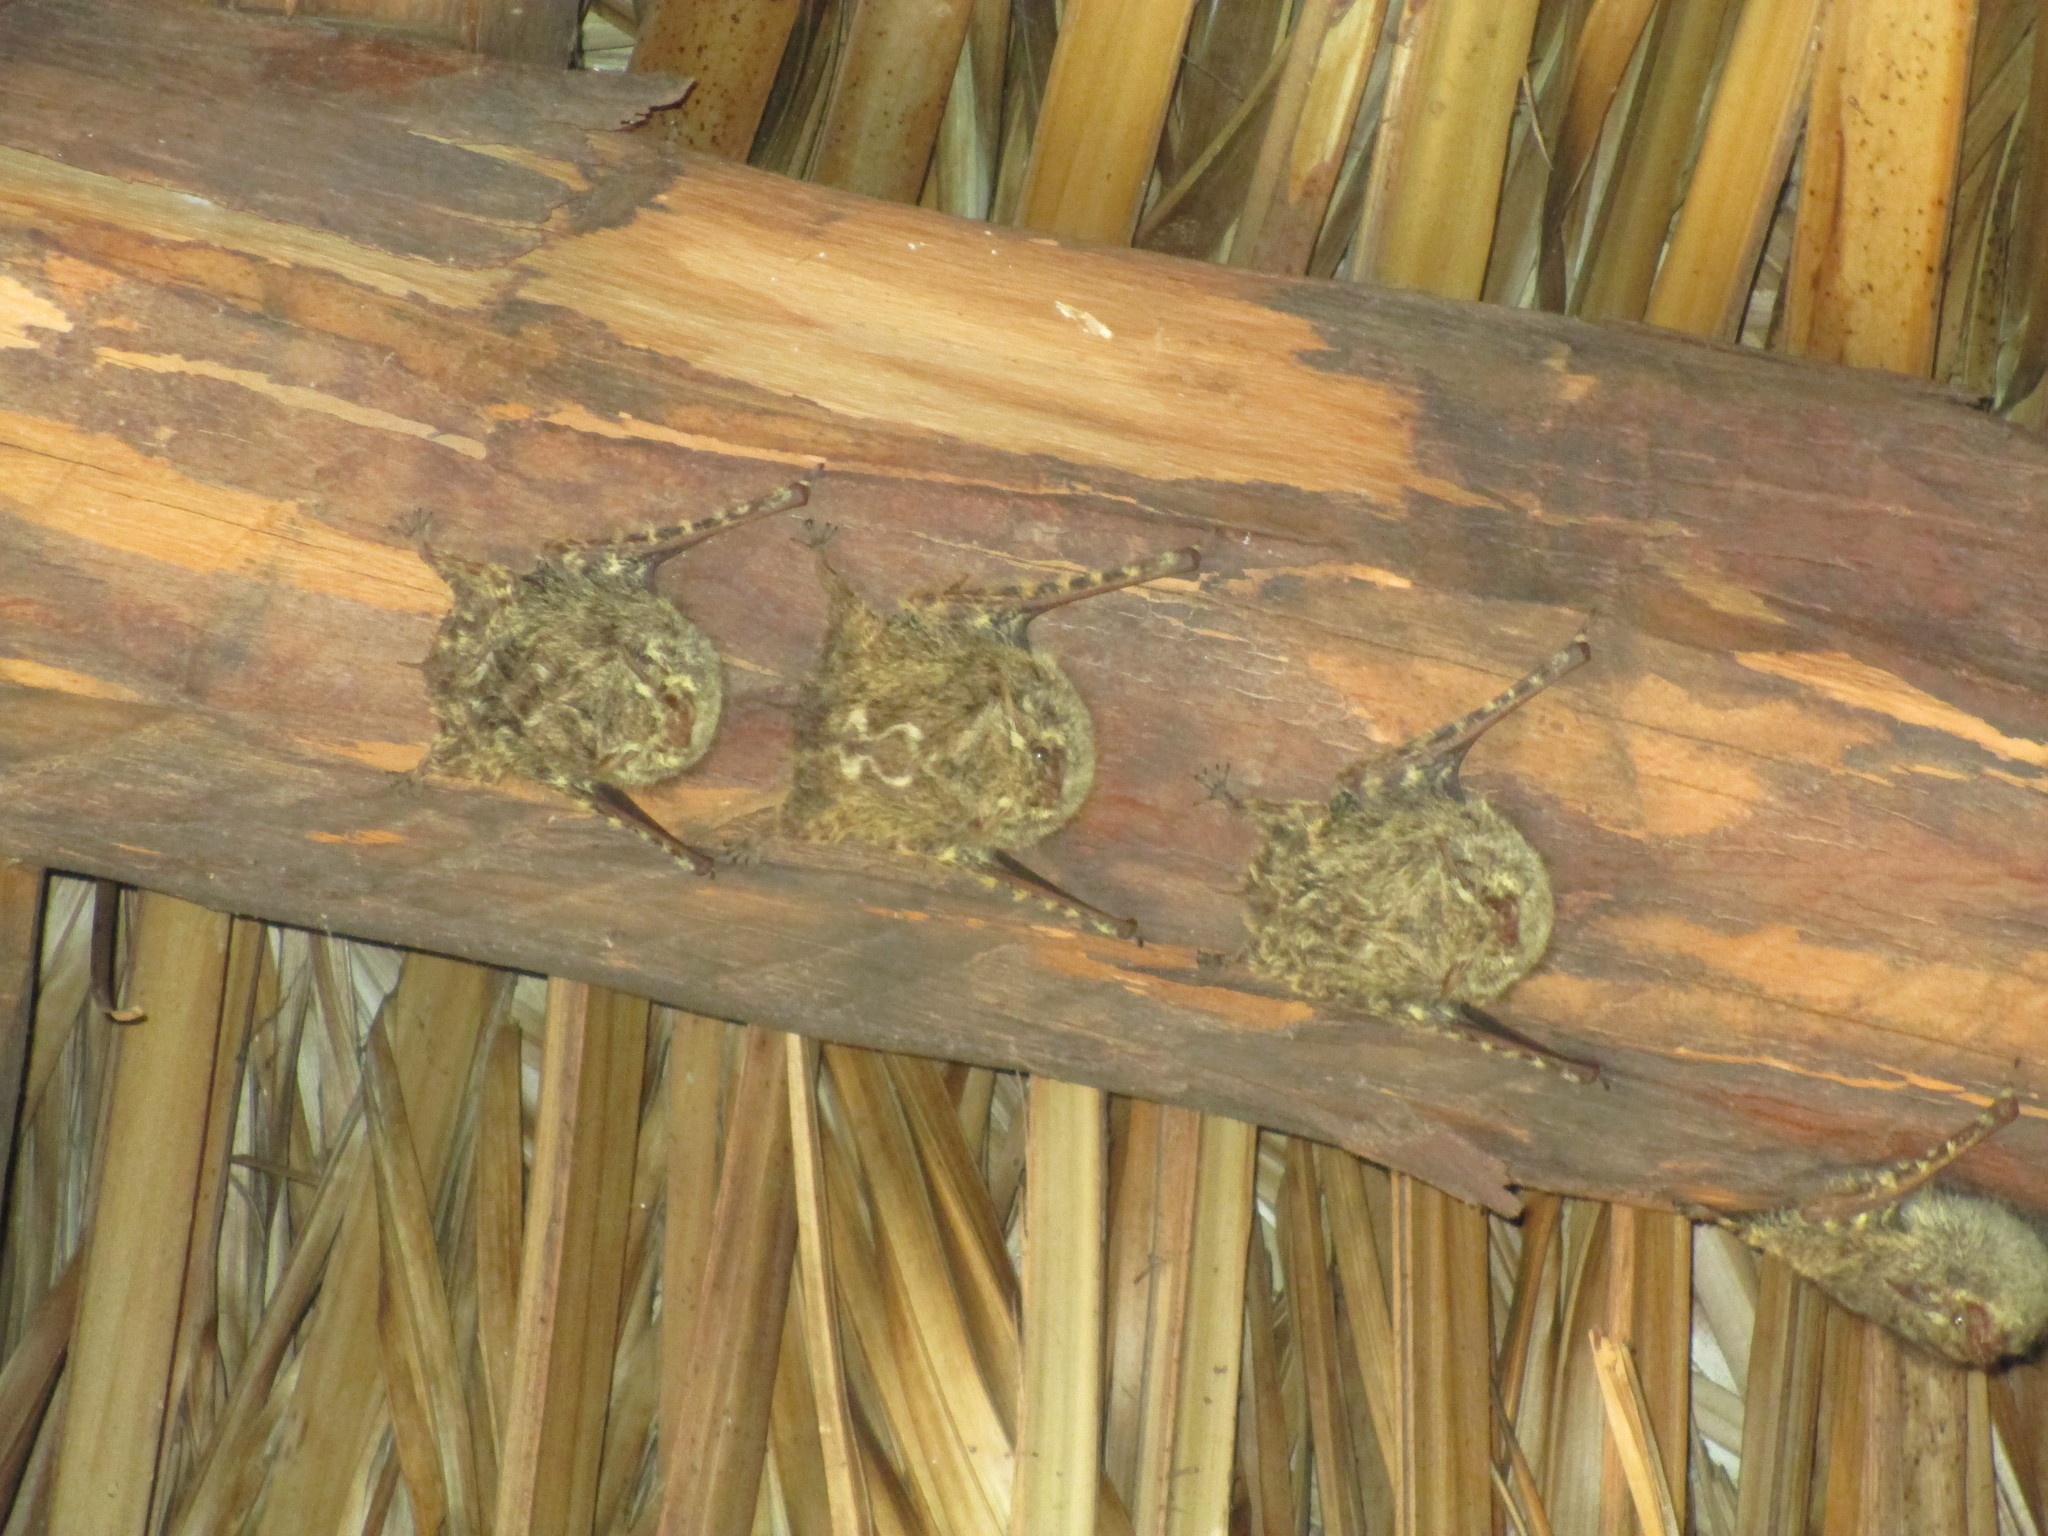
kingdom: Animalia
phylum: Chordata
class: Mammalia
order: Chiroptera
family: Emballonuridae
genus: Rhynchonycteris
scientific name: Rhynchonycteris naso
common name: Proboscis bat
